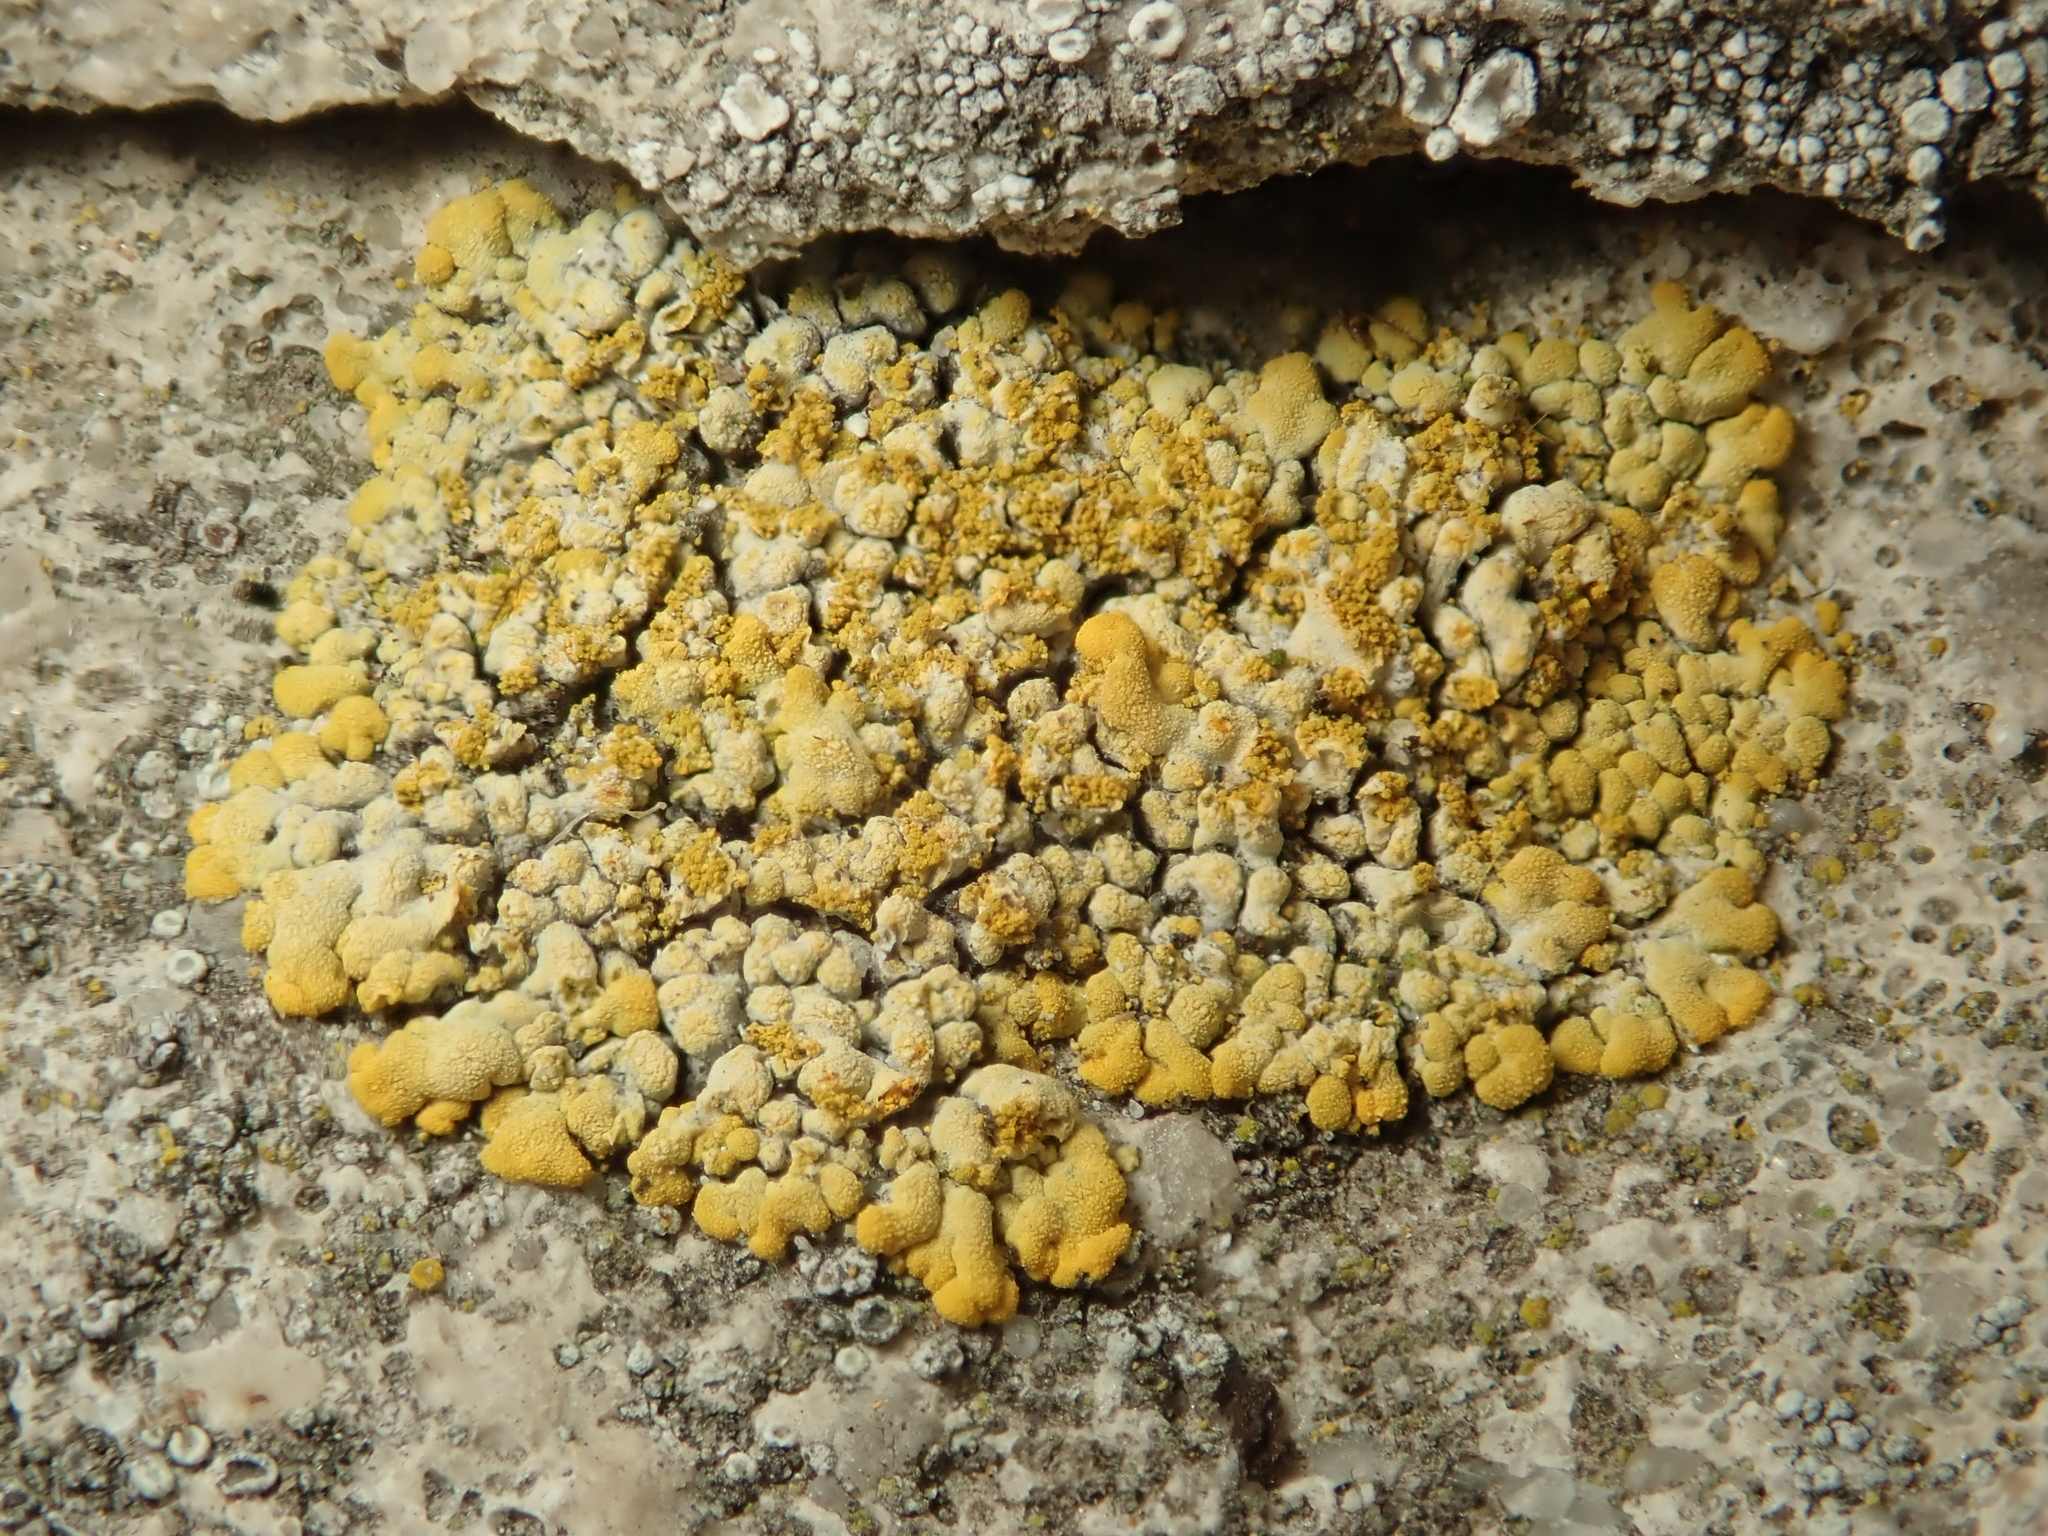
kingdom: Fungi
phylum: Ascomycota
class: Lecanoromycetes
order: Teloschistales
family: Teloschistaceae
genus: Calogaya
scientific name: Calogaya decipiens
